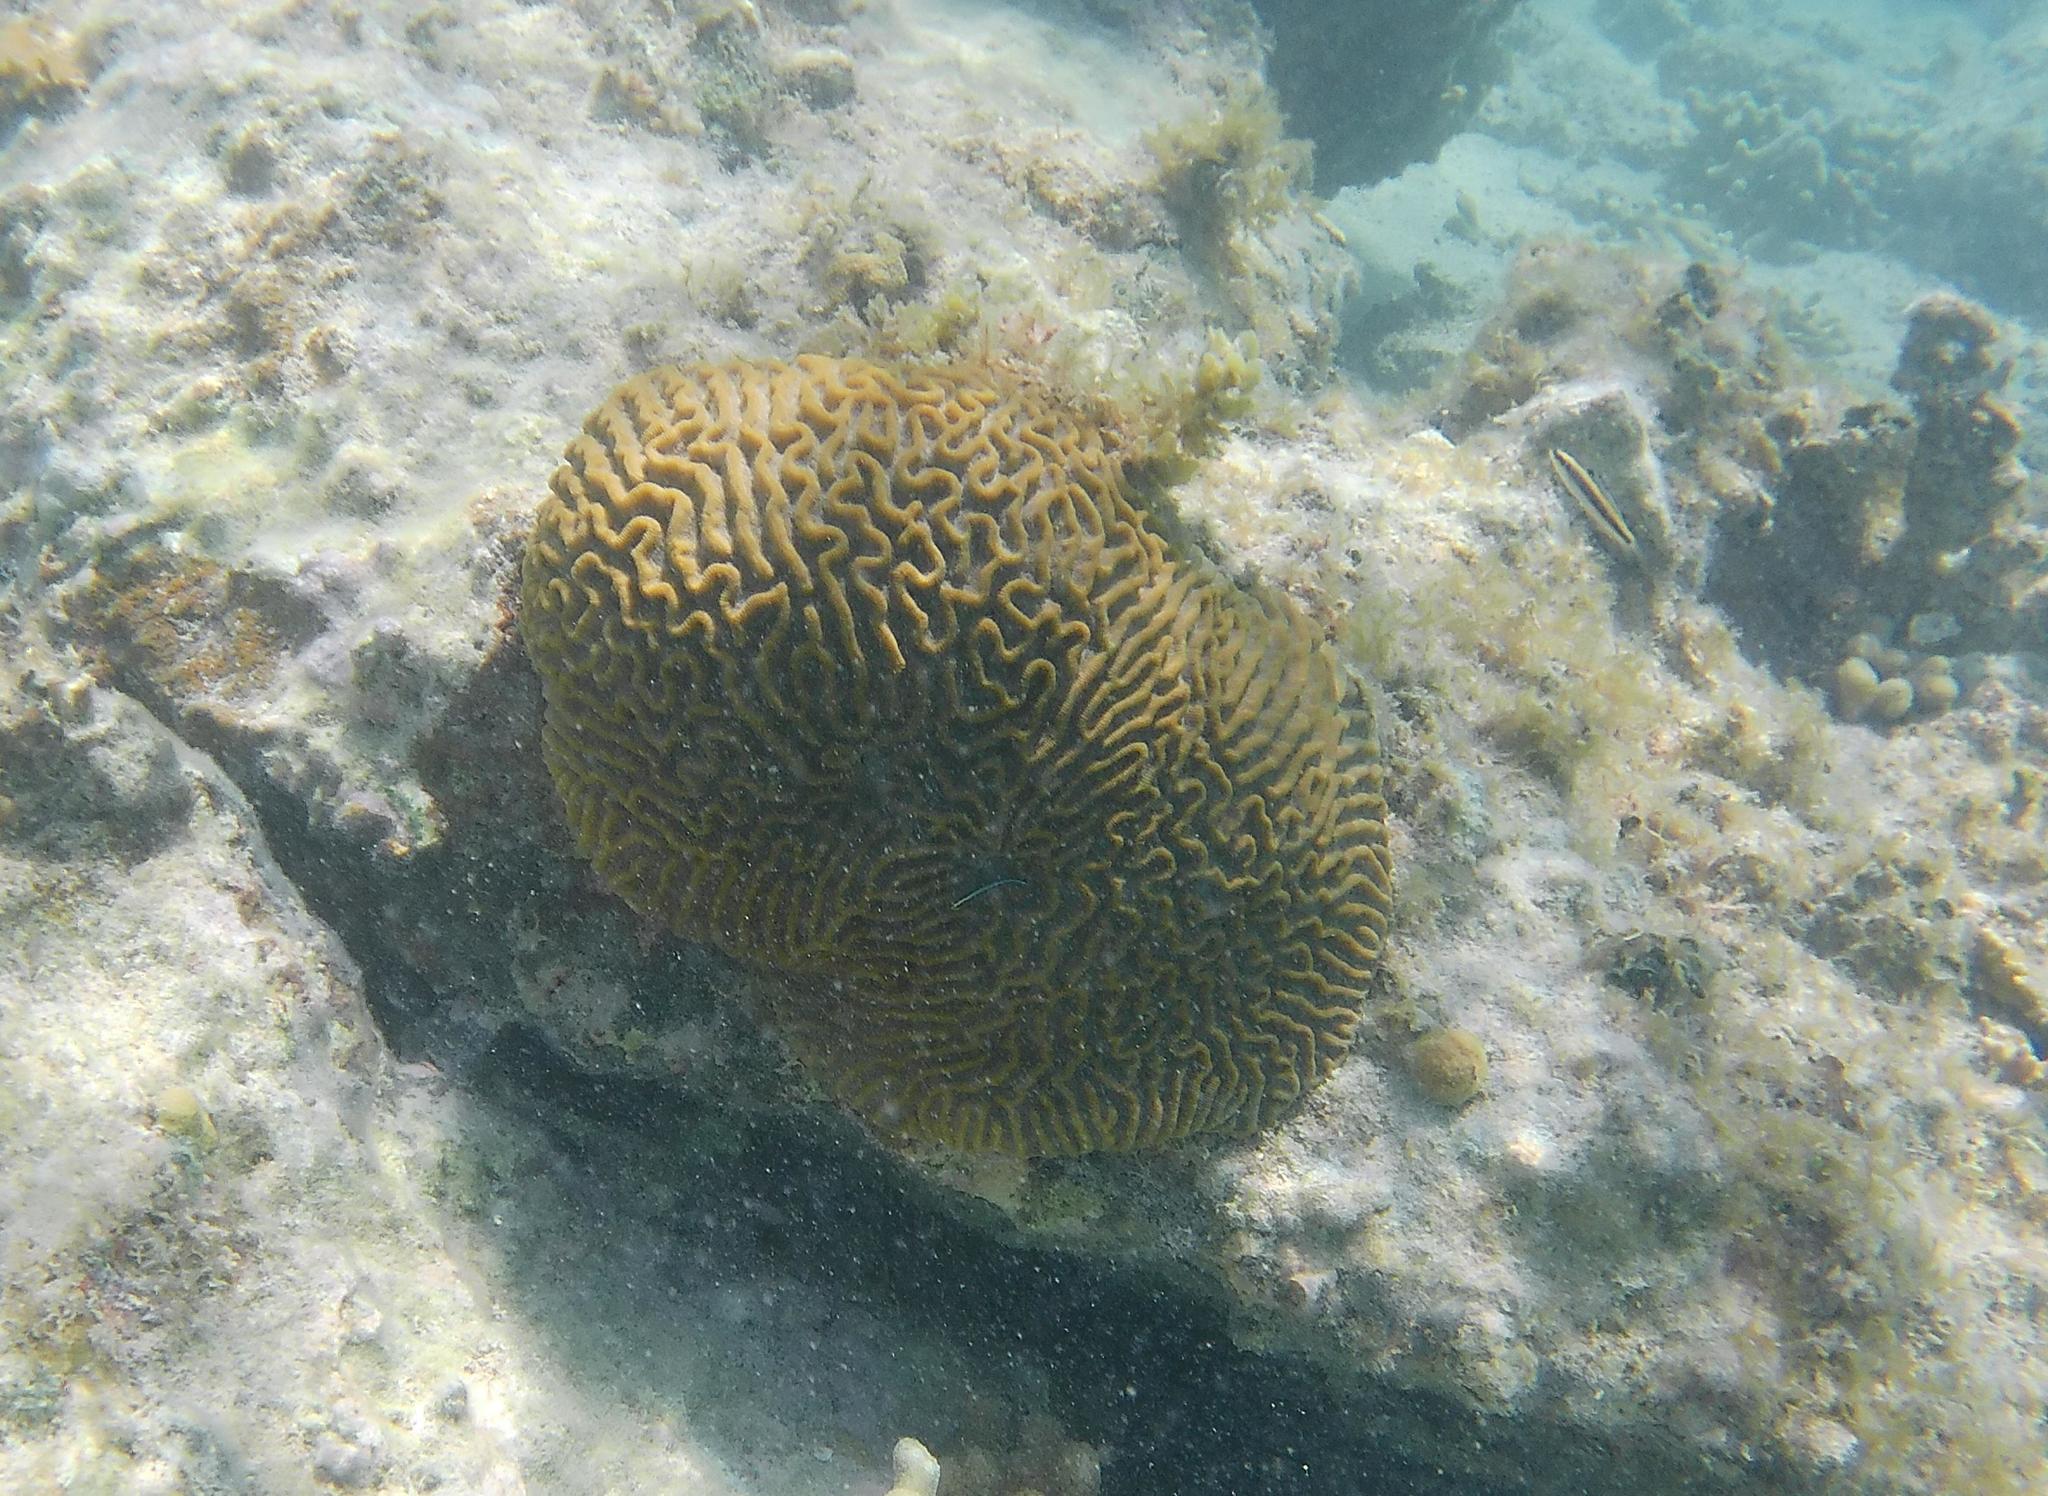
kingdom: Animalia
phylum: Cnidaria
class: Anthozoa
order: Scleractinia
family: Faviidae
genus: Pseudodiploria
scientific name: Pseudodiploria strigosa
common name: Symmetrical brain coral
